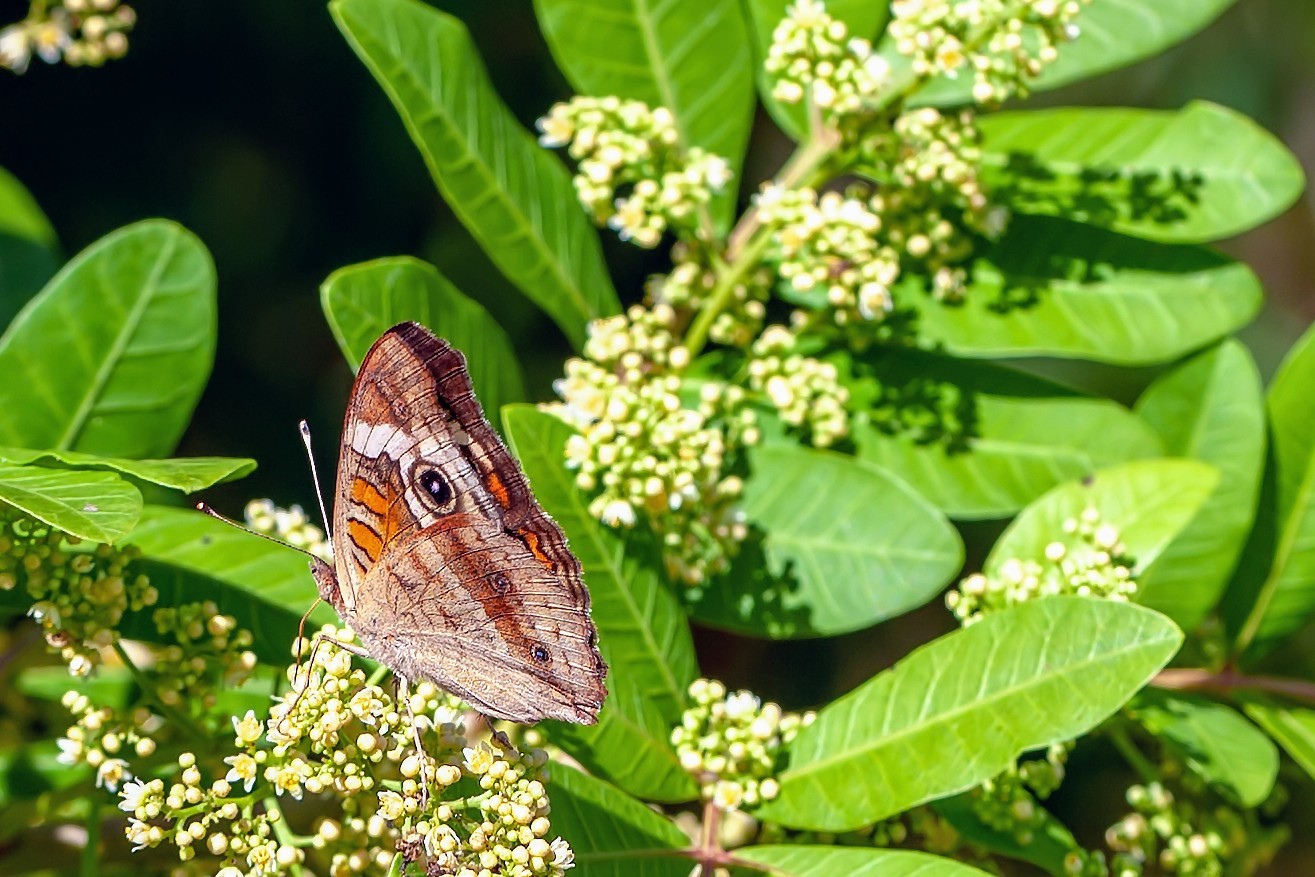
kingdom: Animalia
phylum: Arthropoda
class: Insecta
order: Lepidoptera
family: Nymphalidae
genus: Junonia
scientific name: Junonia coenia
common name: Common buckeye
